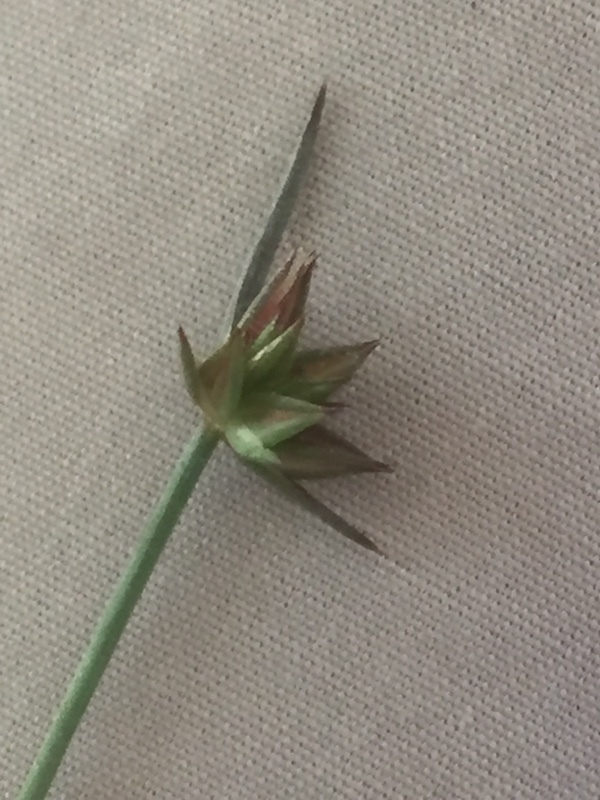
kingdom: Plantae
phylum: Tracheophyta
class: Liliopsida
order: Poales
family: Juncaceae
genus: Juncus
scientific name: Juncus capitatus
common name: Dwarf rush
